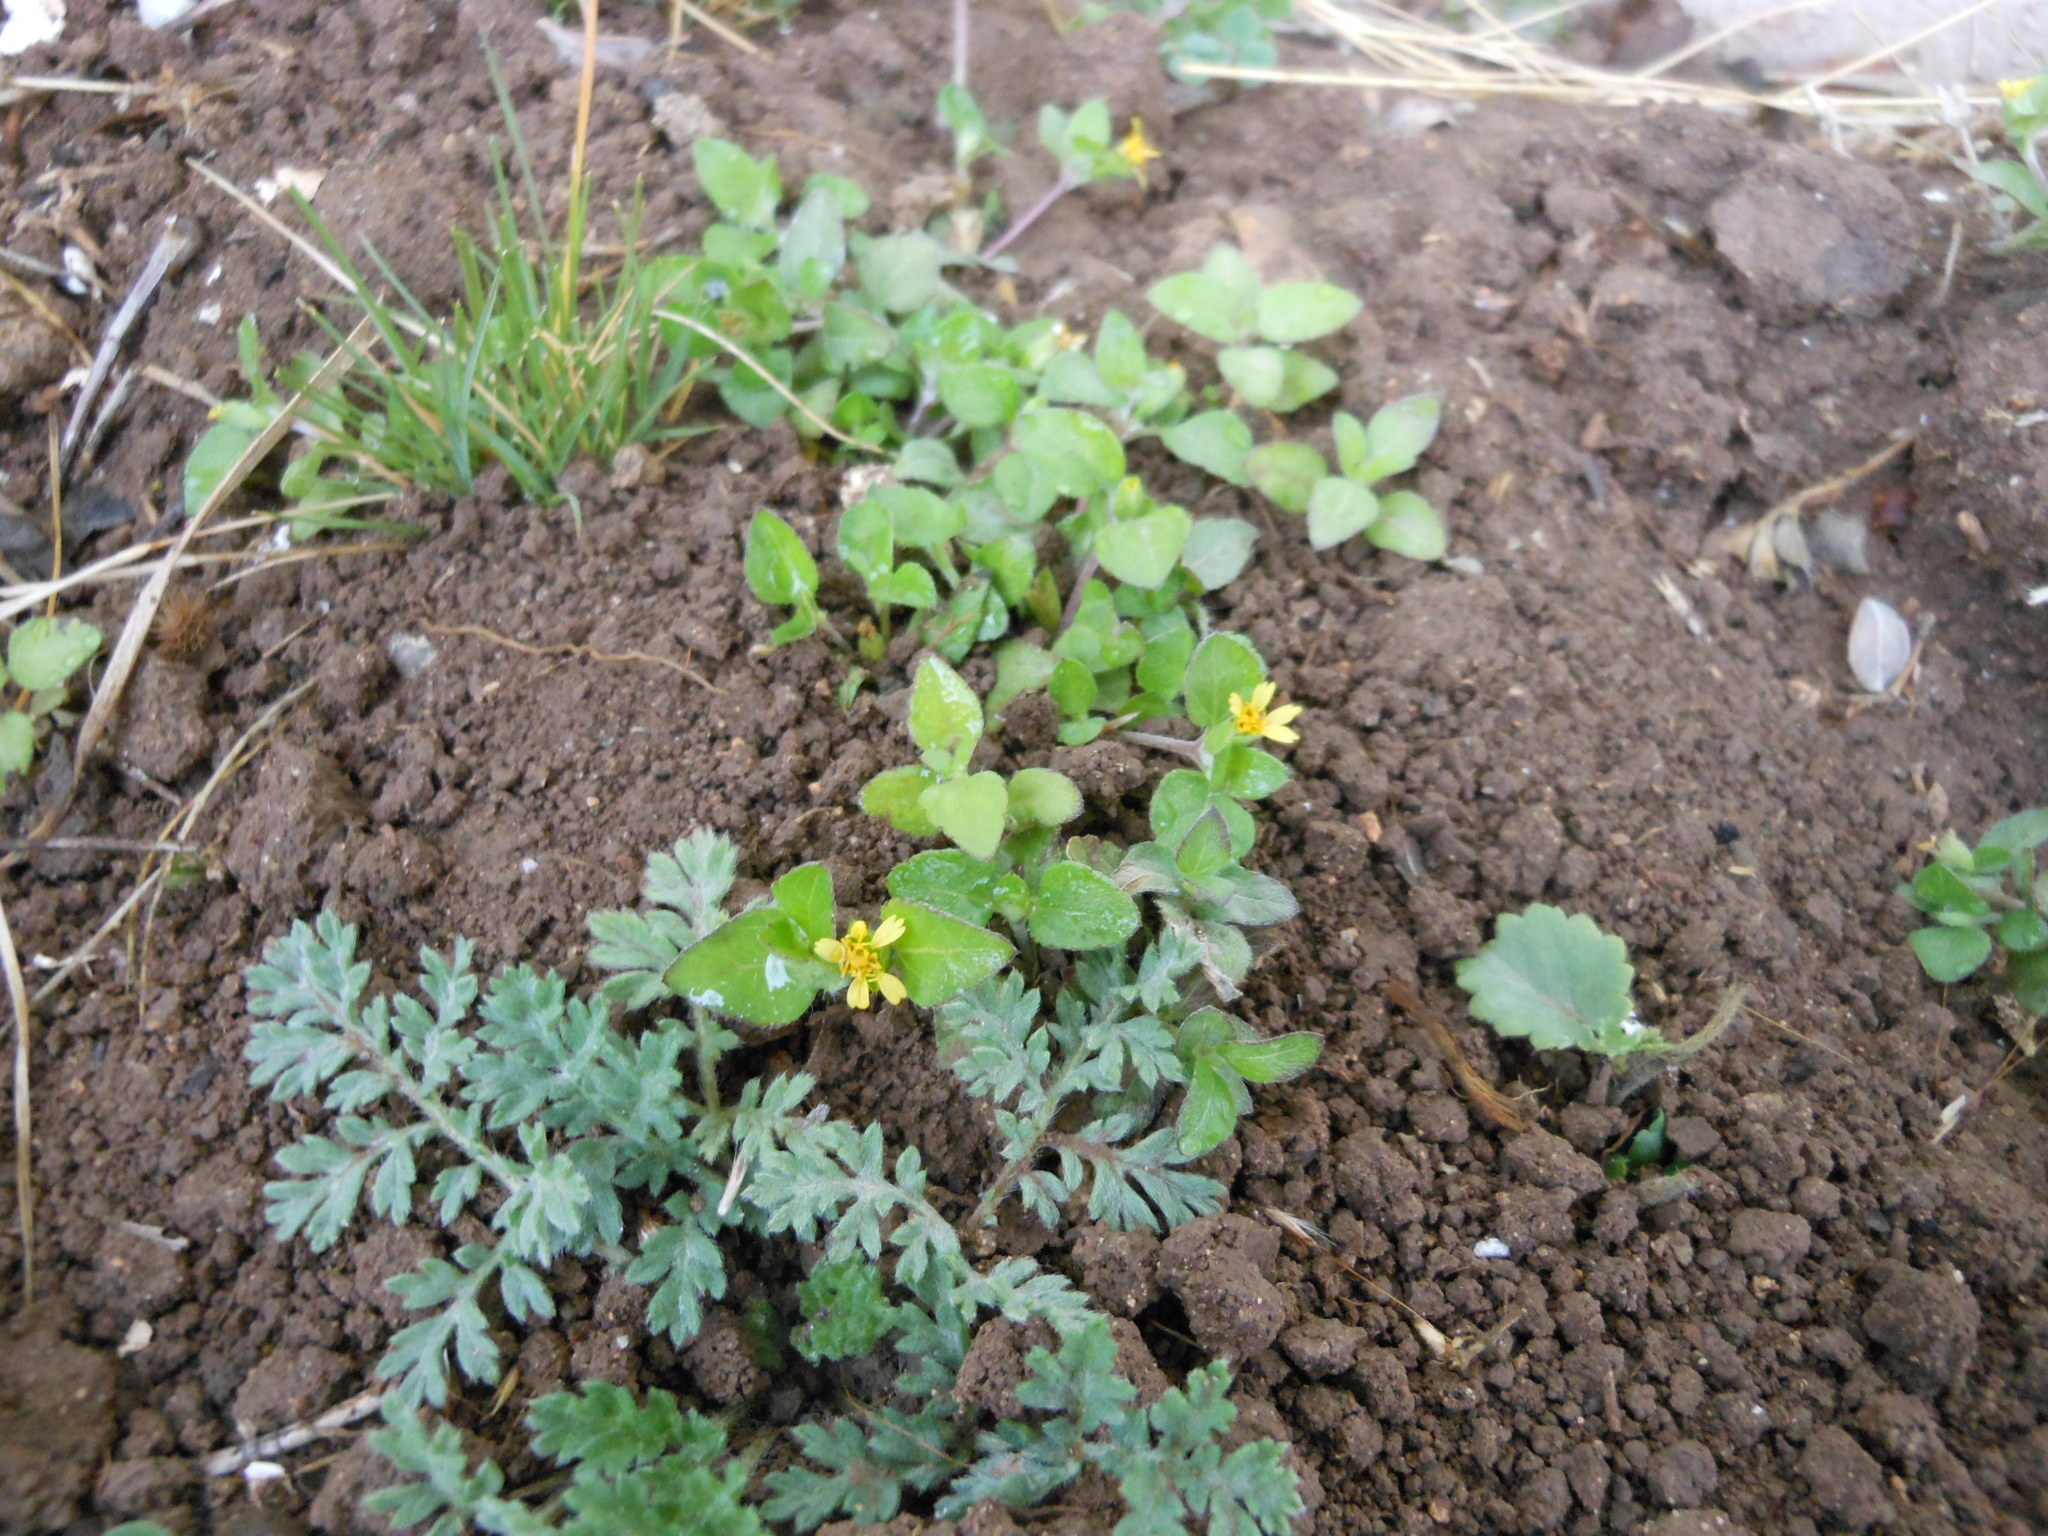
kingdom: Plantae
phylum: Tracheophyta
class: Magnoliopsida
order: Asterales
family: Asteraceae
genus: Calyptocarpus
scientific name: Calyptocarpus vialis
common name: Straggler daisy
